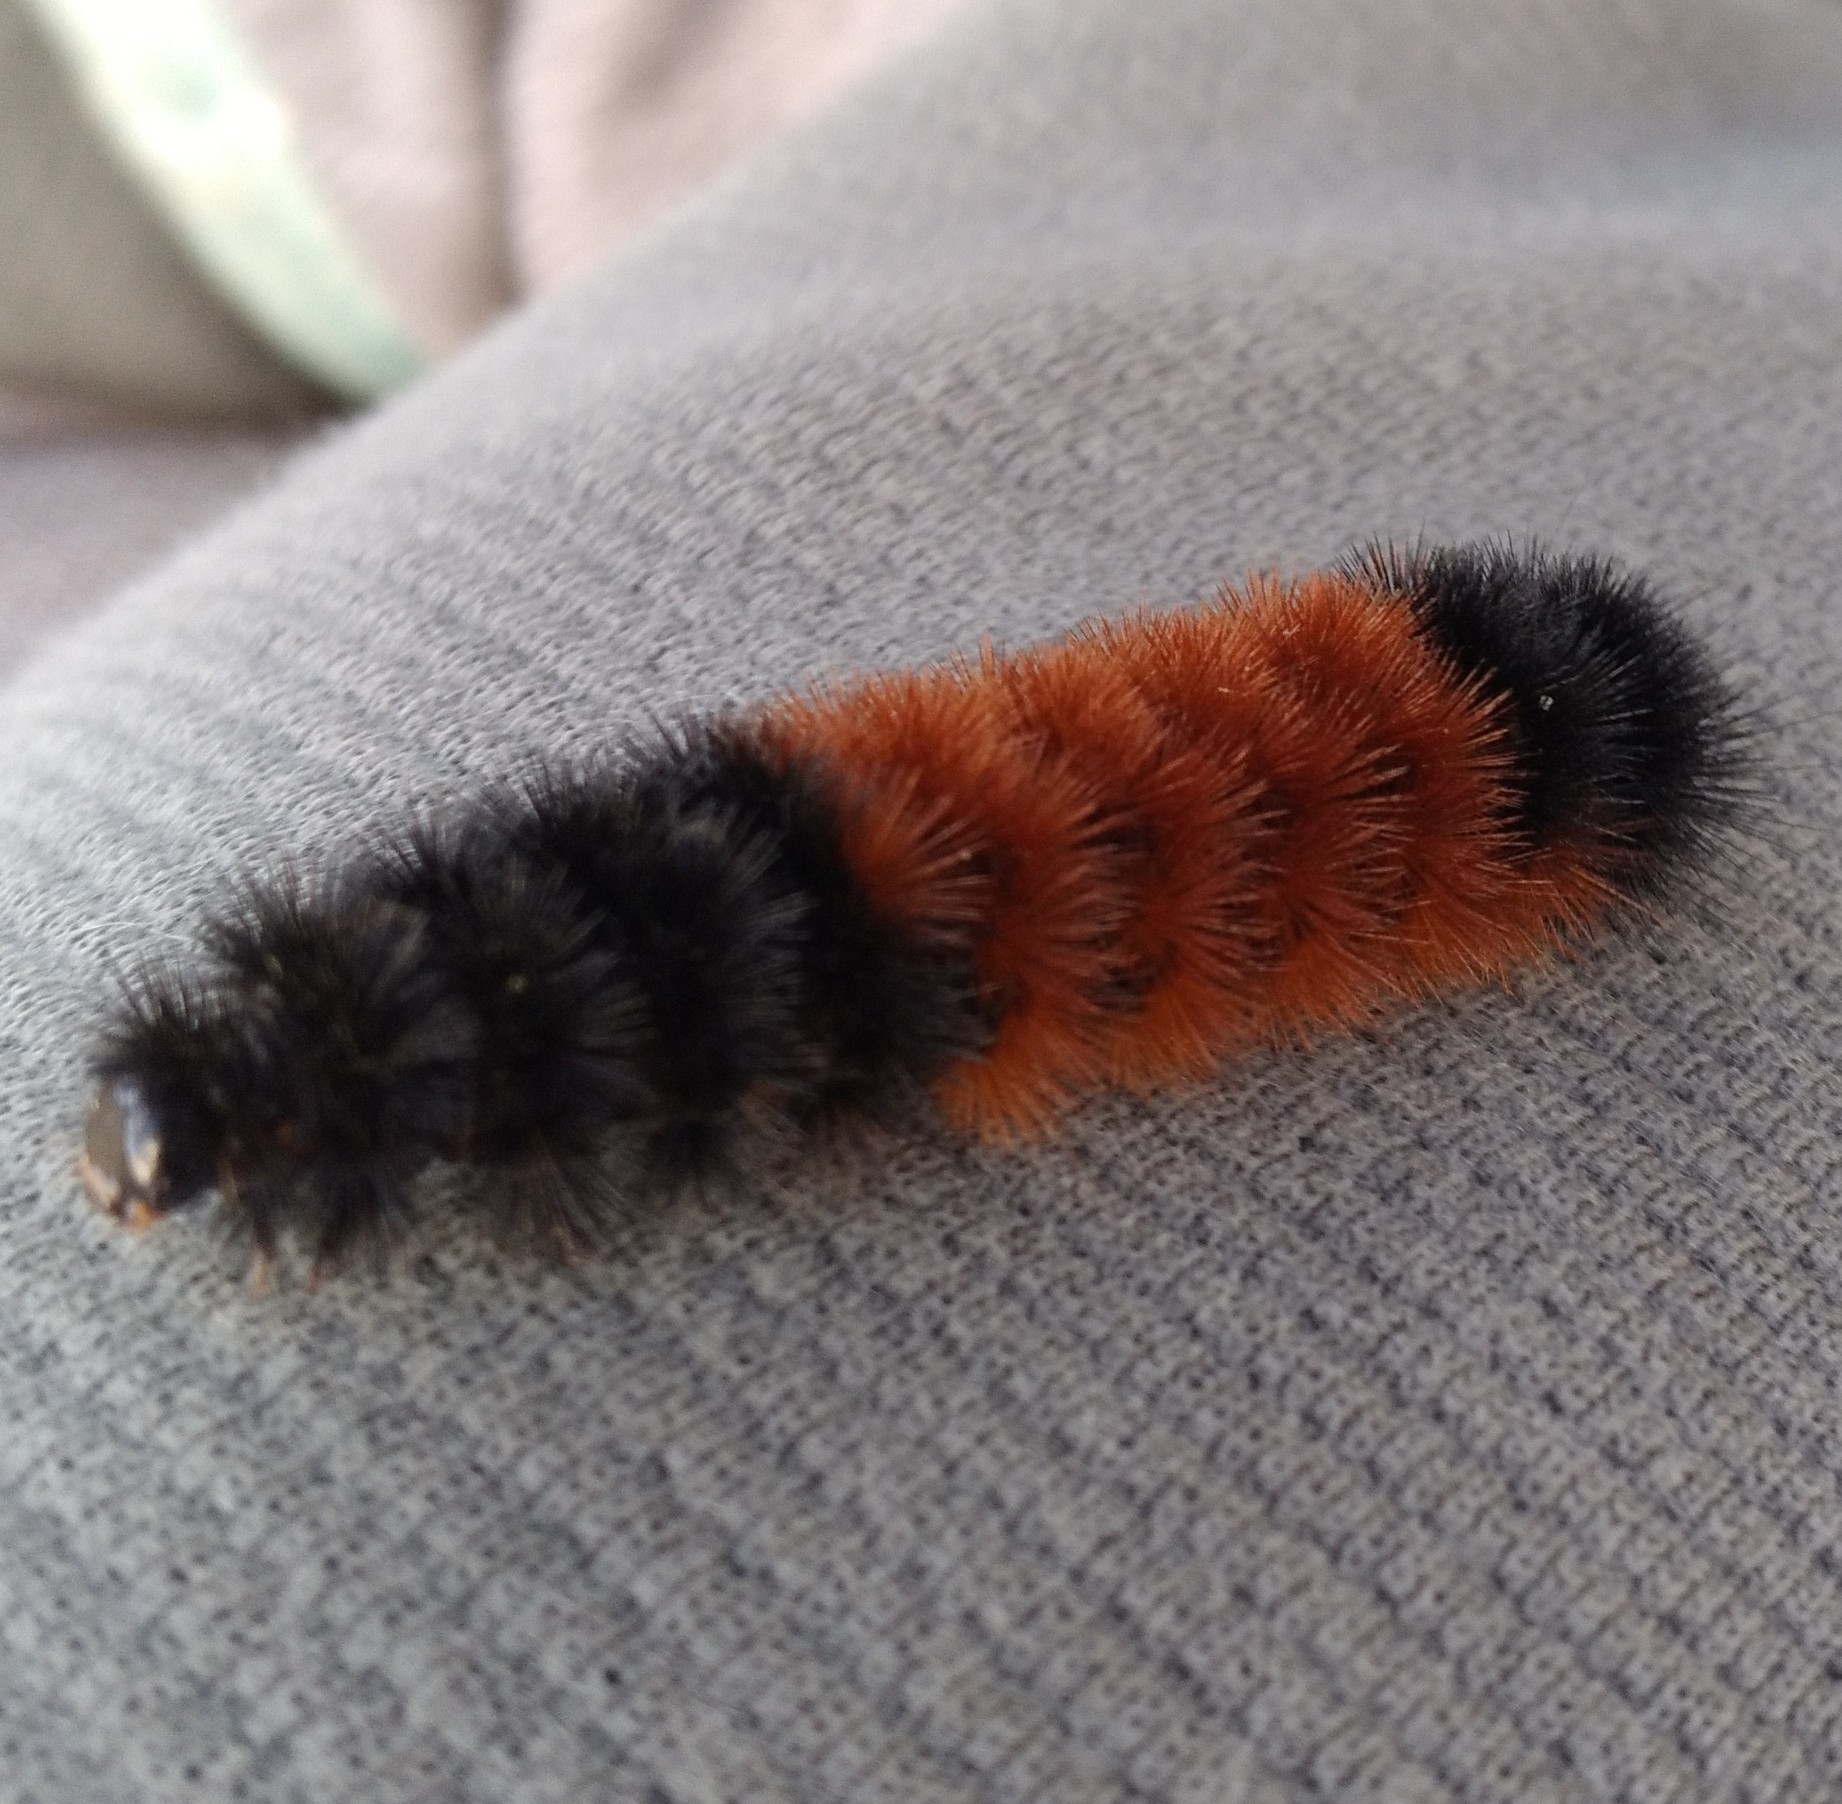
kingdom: Animalia
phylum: Arthropoda
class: Insecta
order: Lepidoptera
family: Erebidae
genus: Pyrrharctia
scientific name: Pyrrharctia isabella
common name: Isabella tiger moth
